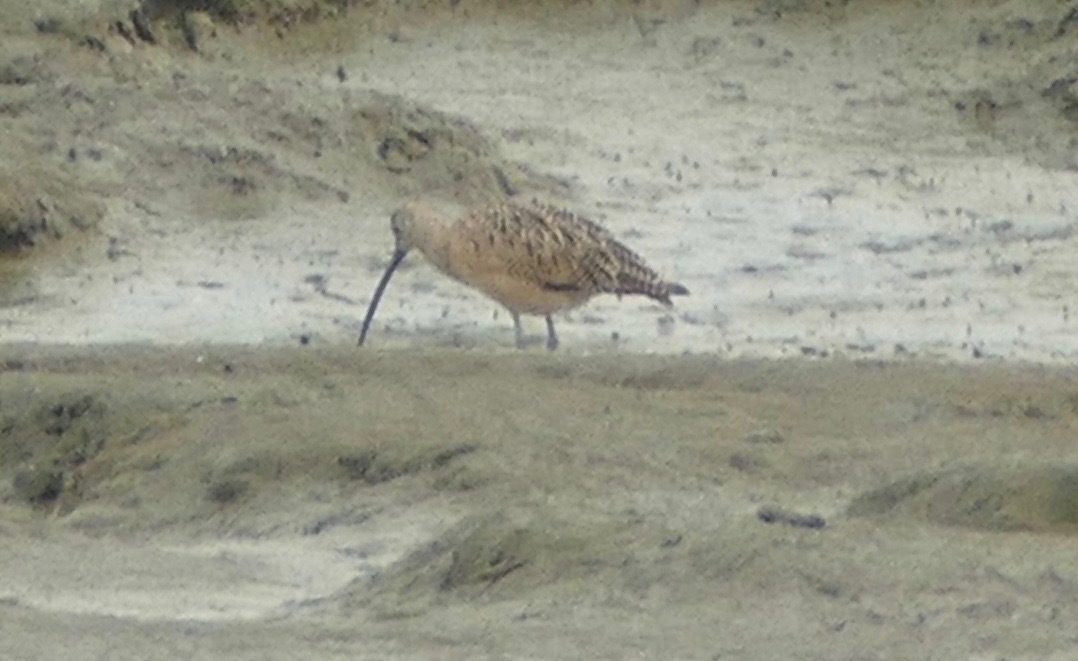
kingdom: Animalia
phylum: Chordata
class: Aves
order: Charadriiformes
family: Scolopacidae
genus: Numenius
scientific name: Numenius americanus
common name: Long-billed curlew
